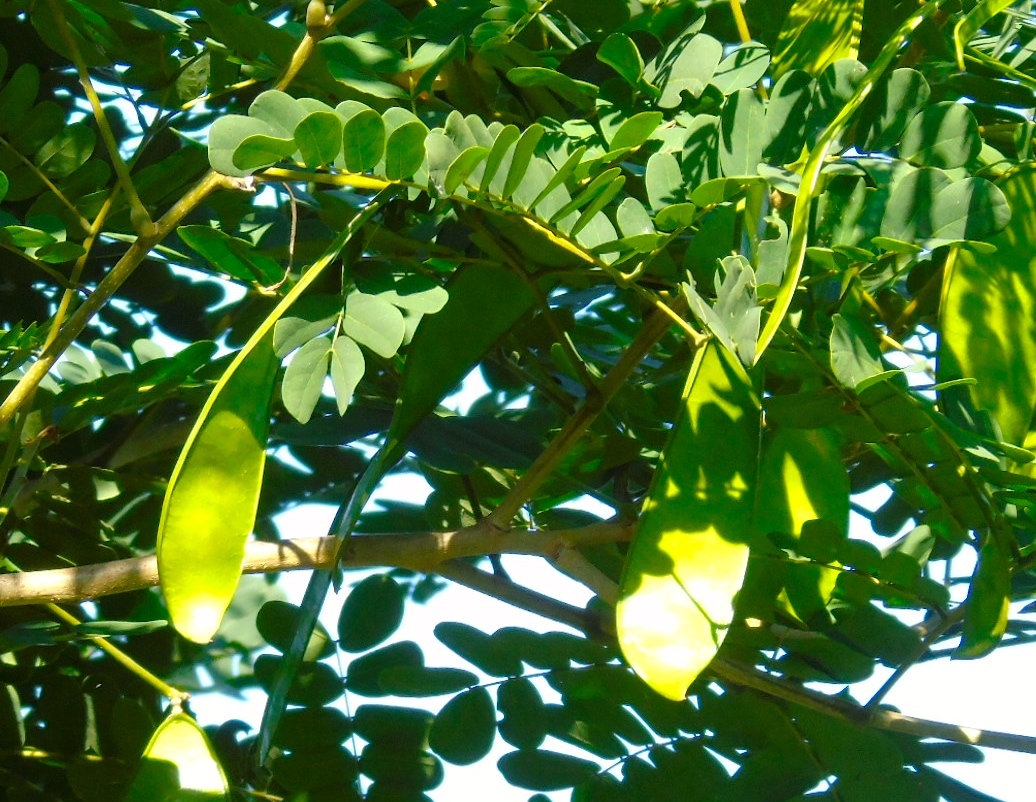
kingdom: Plantae
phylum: Tracheophyta
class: Magnoliopsida
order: Fabales
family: Fabaceae
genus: Albizia
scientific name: Albizia lebbeck
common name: Woman's tongue
